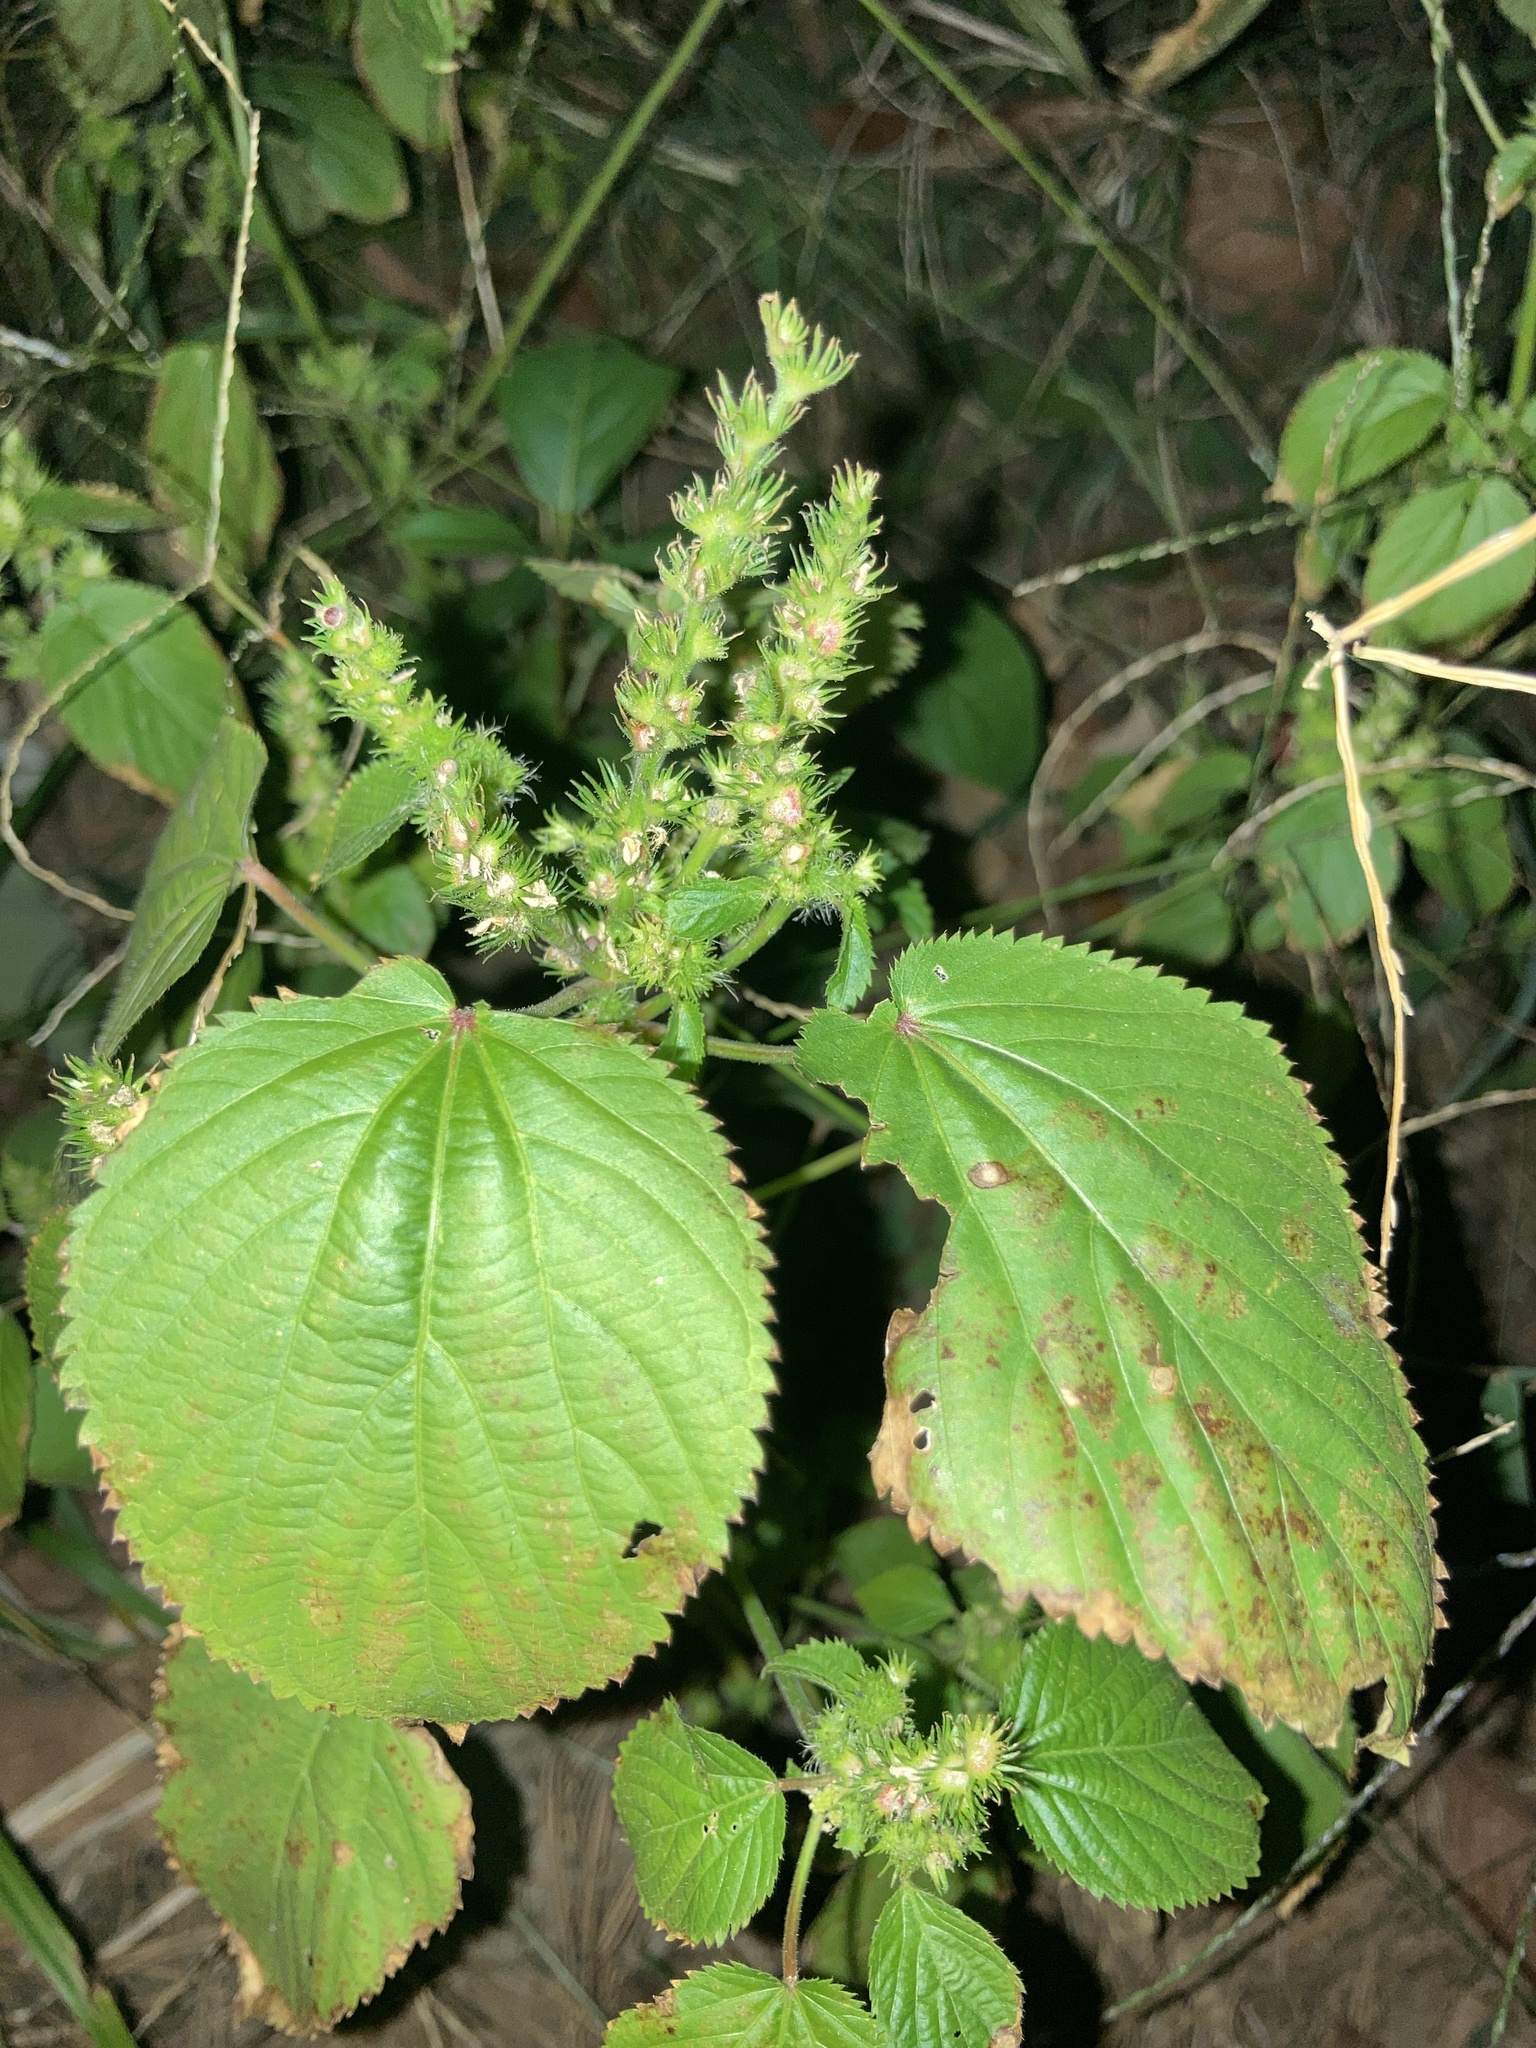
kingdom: Plantae
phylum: Tracheophyta
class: Magnoliopsida
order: Malpighiales
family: Euphorbiaceae
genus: Acalypha
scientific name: Acalypha ostryifolia
